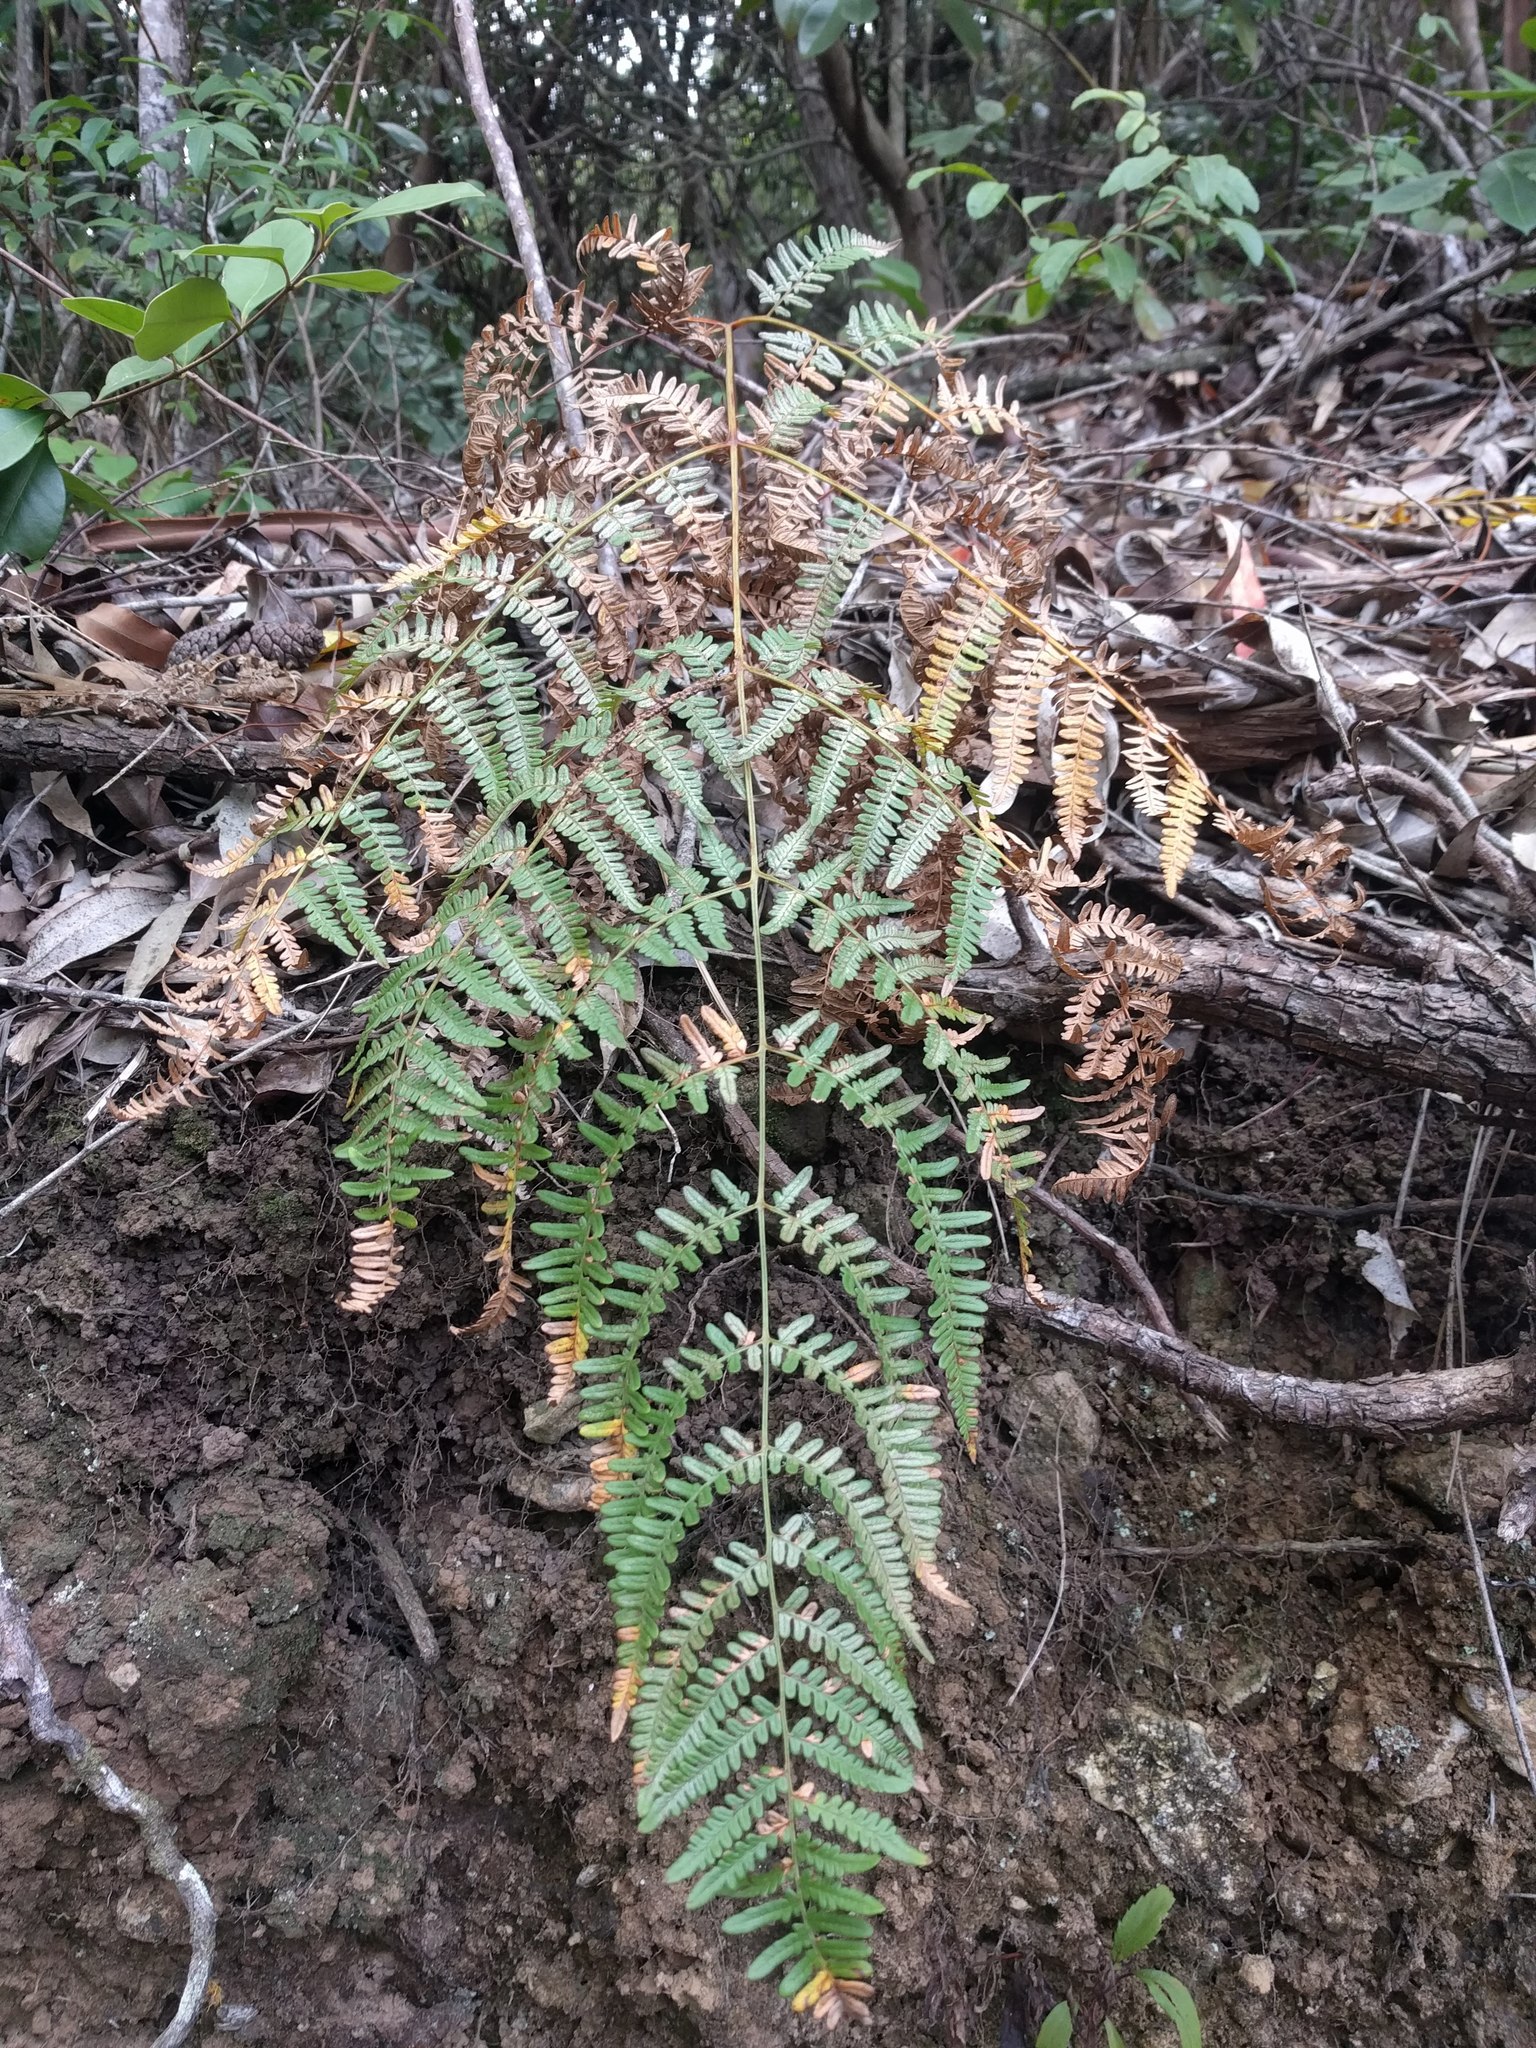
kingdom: Plantae
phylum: Tracheophyta
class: Polypodiopsida
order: Polypodiales
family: Dennstaedtiaceae
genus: Pteridium
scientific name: Pteridium aquilinum
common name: Bracken
